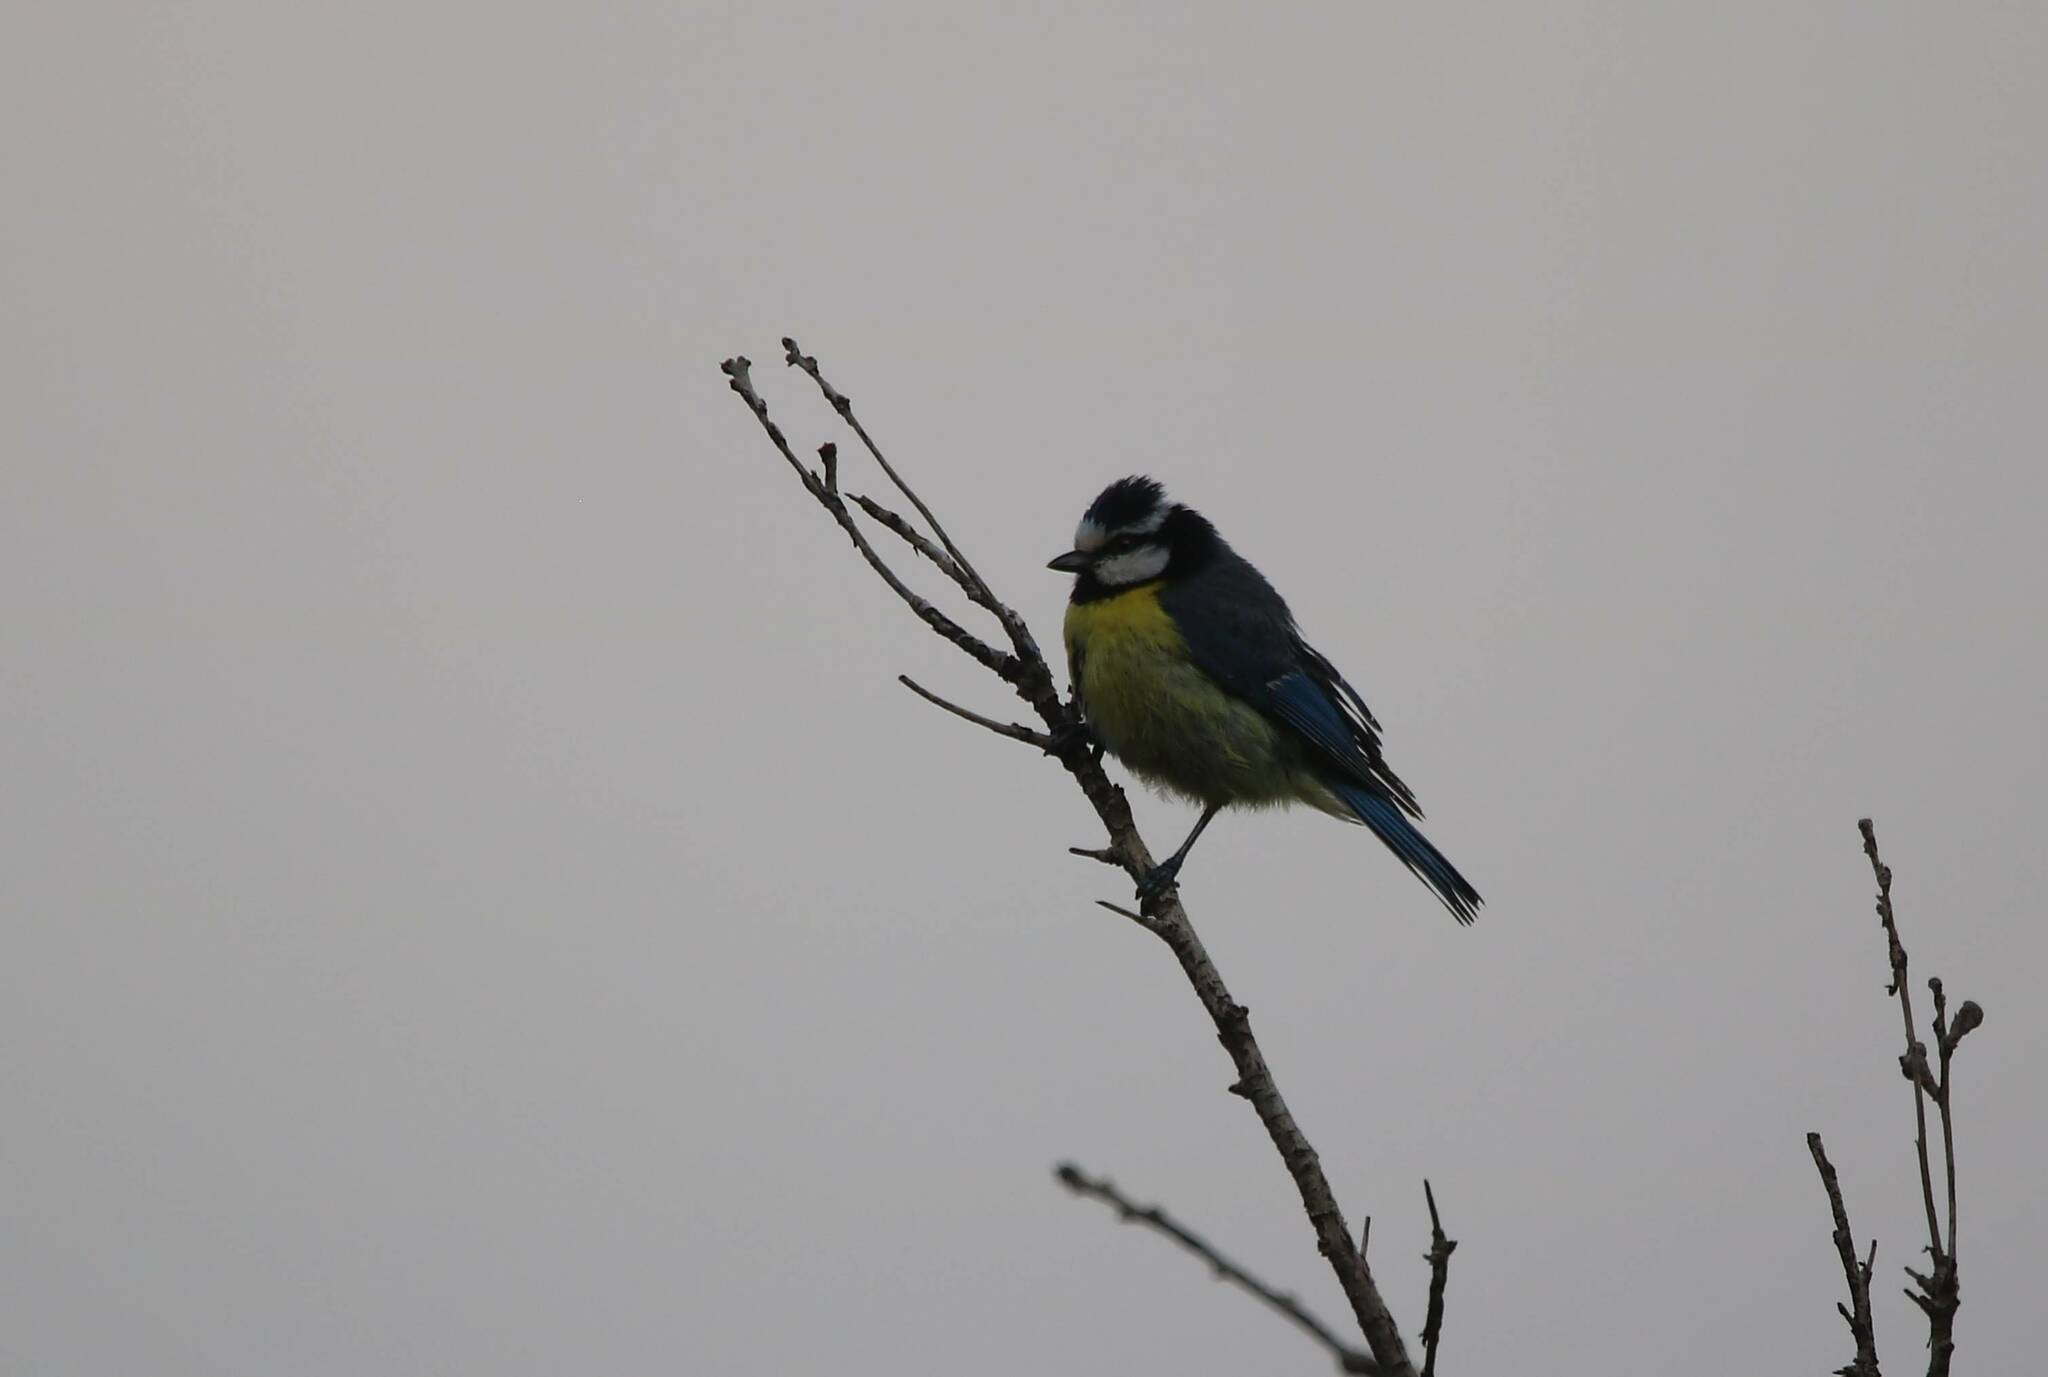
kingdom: Animalia
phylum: Chordata
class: Aves
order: Passeriformes
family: Paridae
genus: Cyanistes
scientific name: Cyanistes teneriffae
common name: African blue tit
